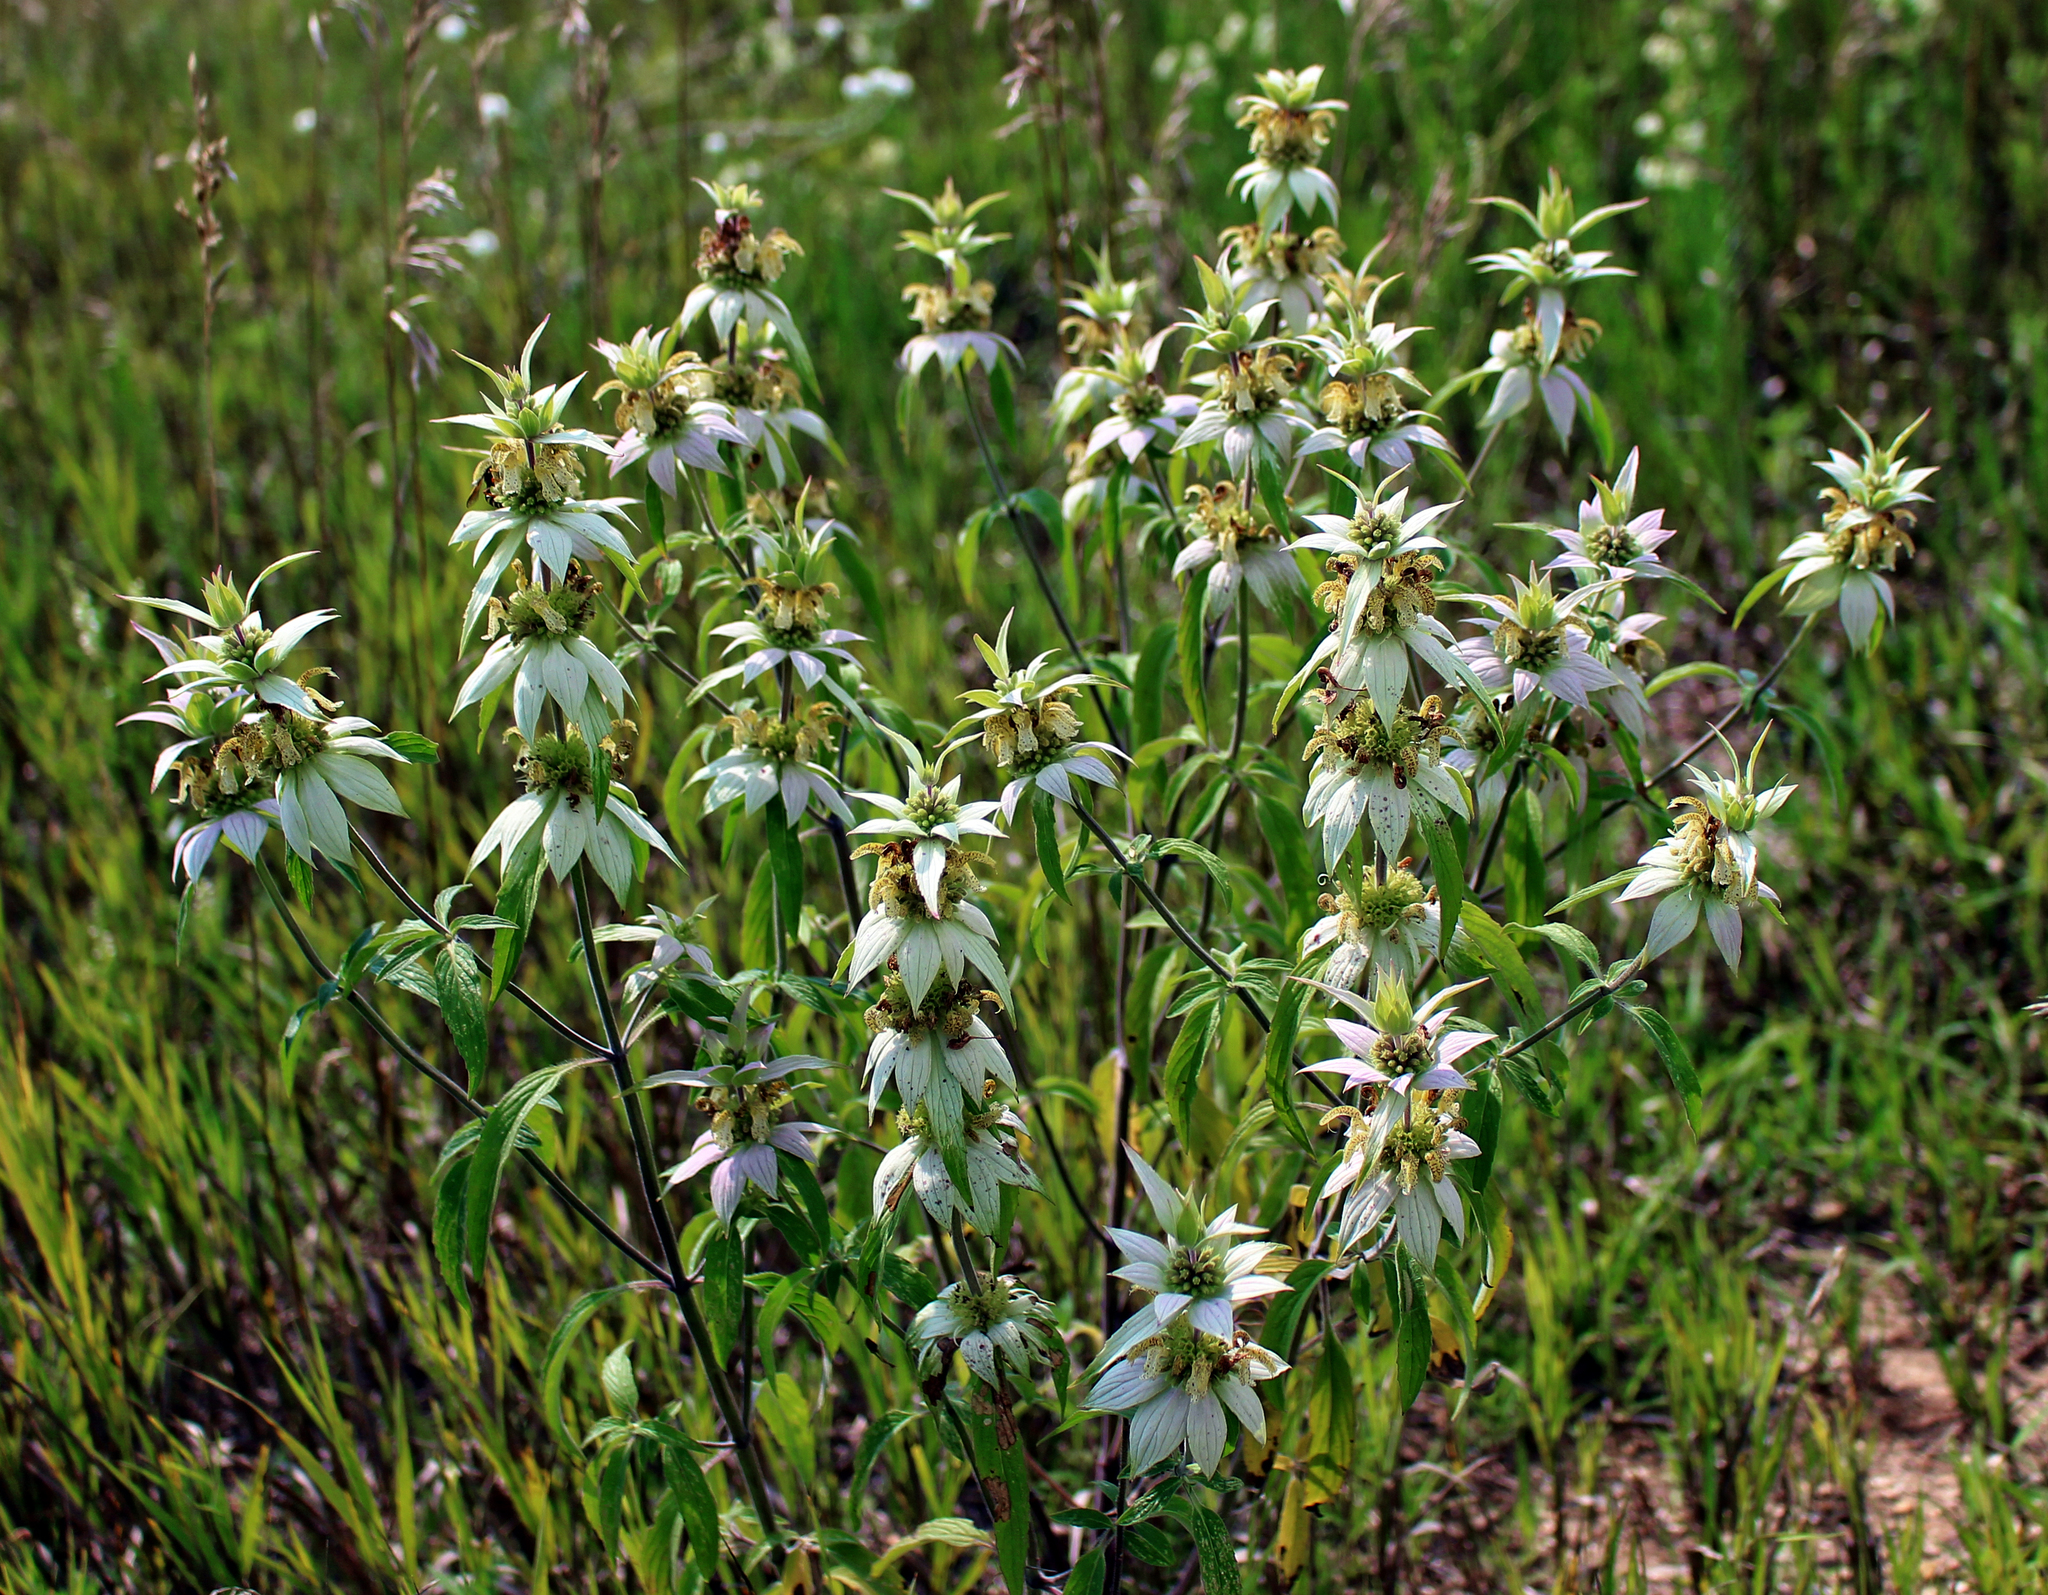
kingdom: Plantae
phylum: Tracheophyta
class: Magnoliopsida
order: Lamiales
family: Lamiaceae
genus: Monarda
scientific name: Monarda punctata
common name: Dotted monarda
